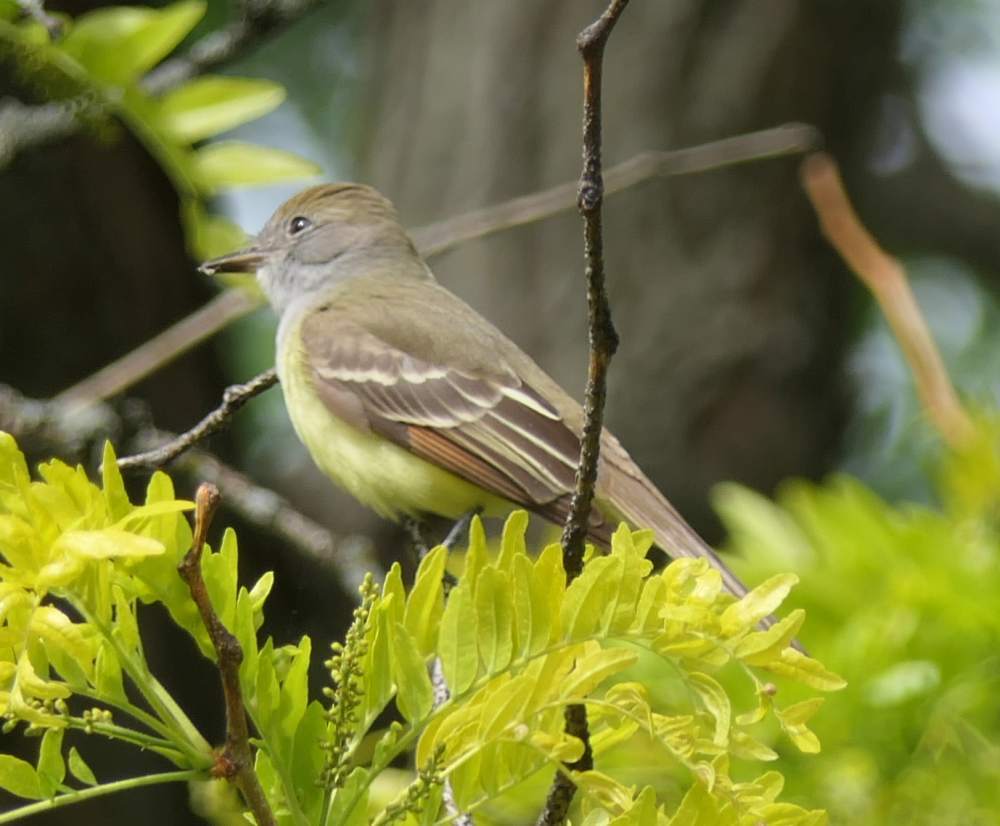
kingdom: Animalia
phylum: Chordata
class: Aves
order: Passeriformes
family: Tyrannidae
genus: Myiarchus
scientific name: Myiarchus crinitus
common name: Great crested flycatcher
